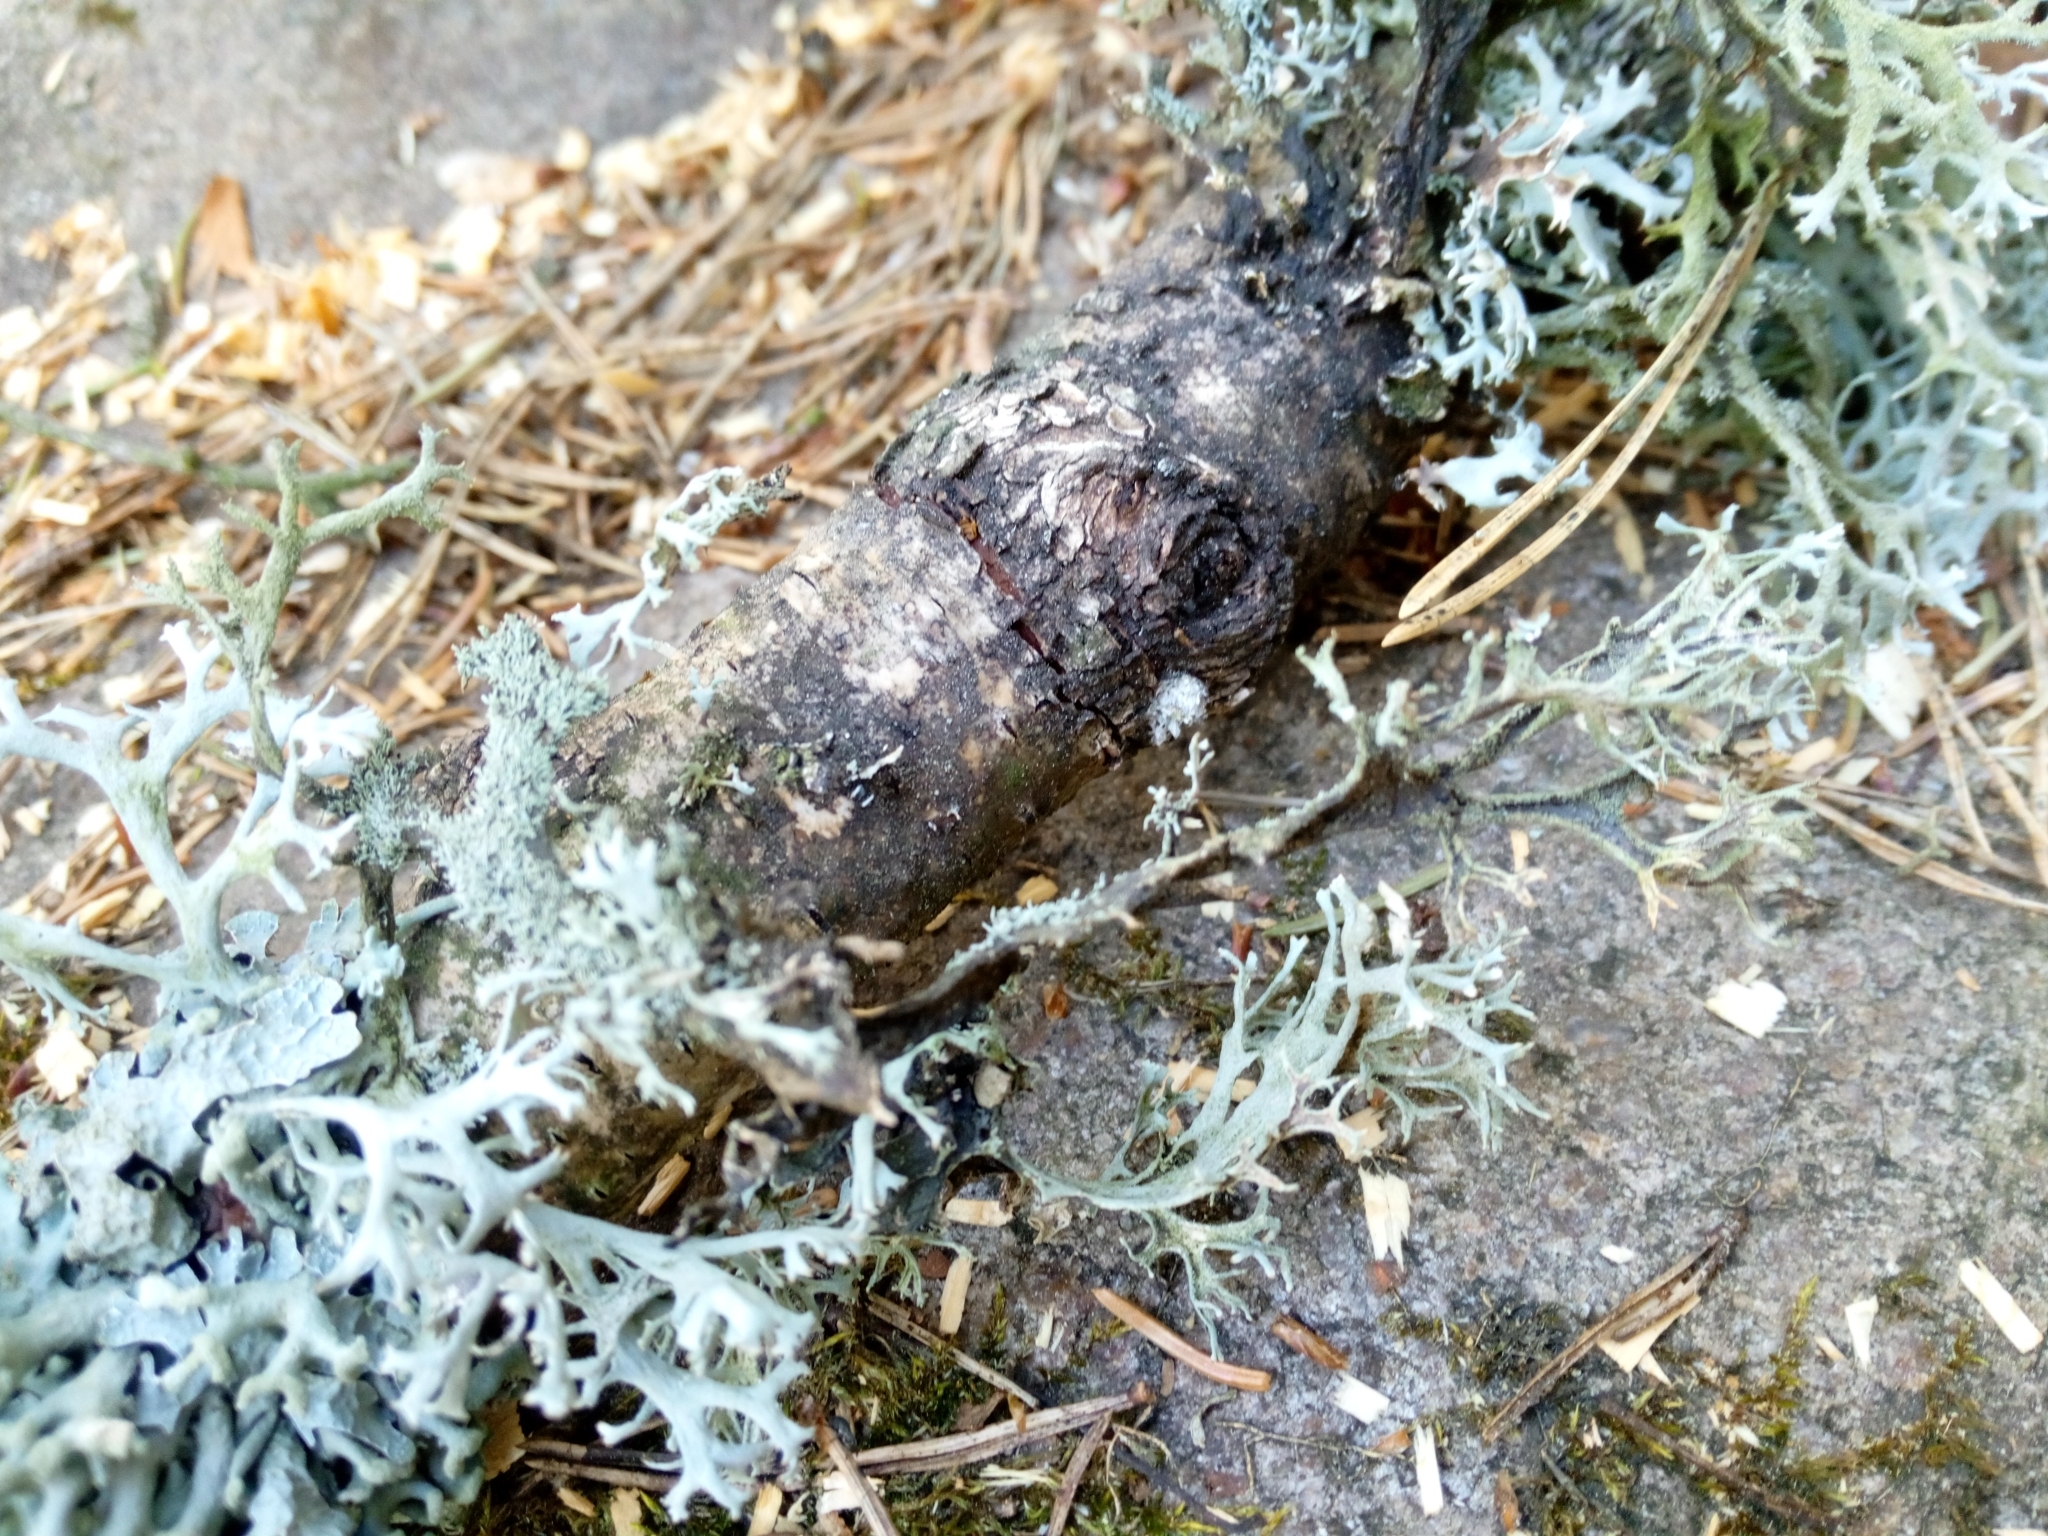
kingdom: Fungi
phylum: Ascomycota
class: Lecanoromycetes
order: Lecanorales
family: Parmeliaceae
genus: Pseudevernia
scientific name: Pseudevernia furfuracea
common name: Tree moss
